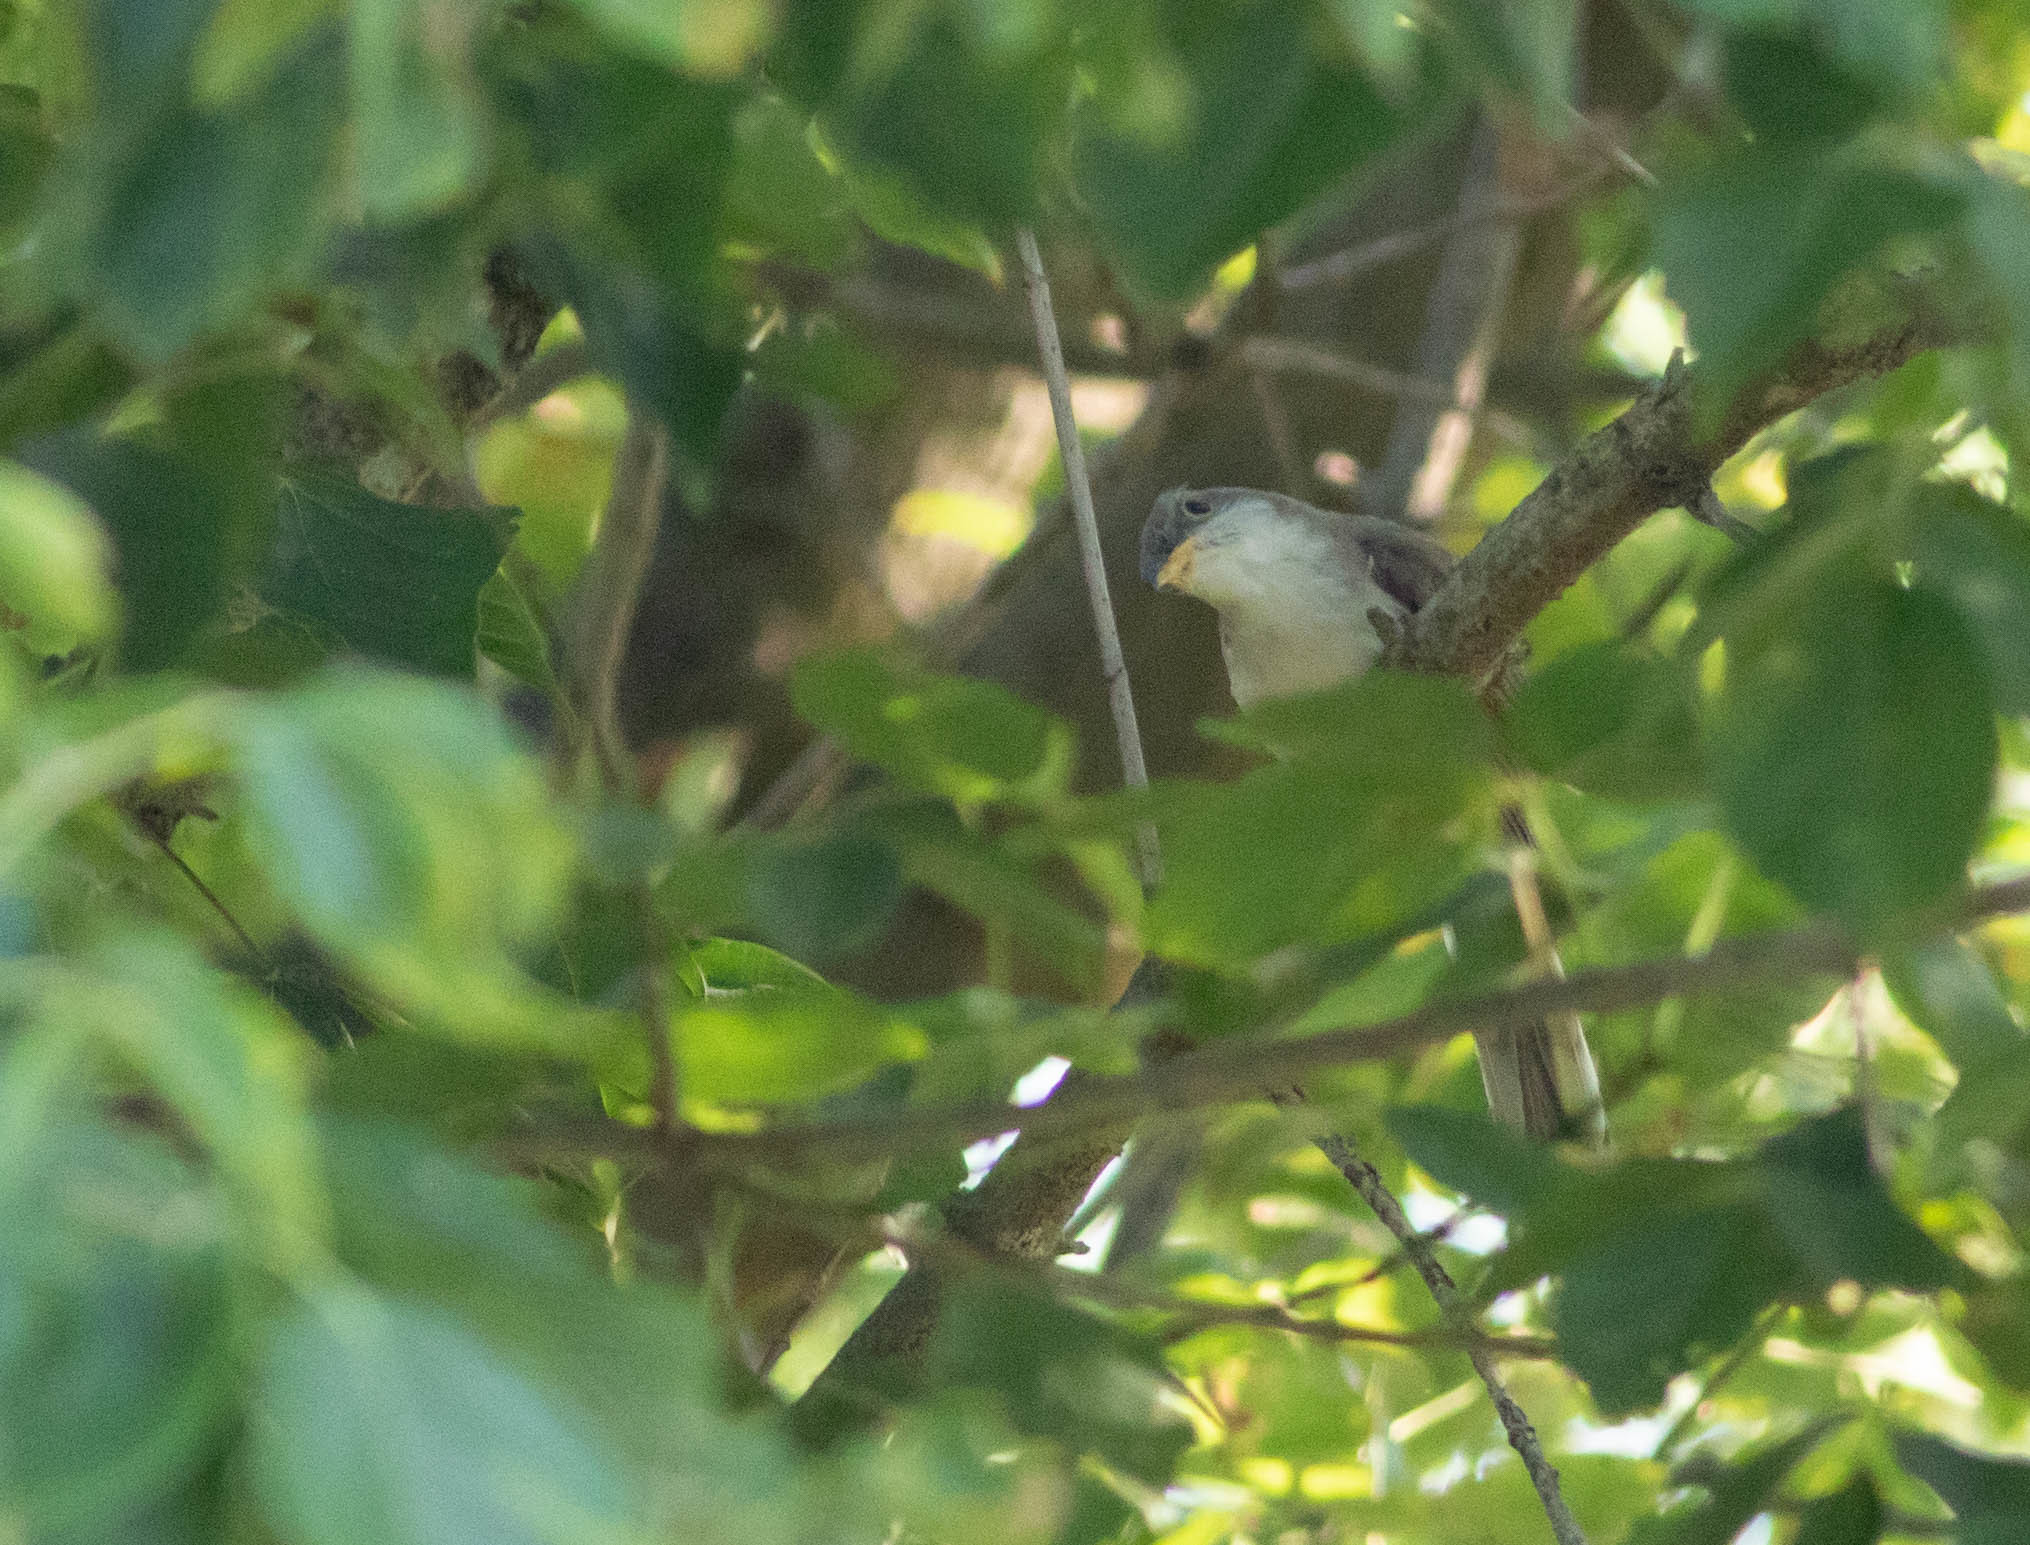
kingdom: Animalia
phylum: Chordata
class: Aves
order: Cuculiformes
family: Cuculidae
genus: Coccyzus
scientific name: Coccyzus americanus
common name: Yellow-billed cuckoo
